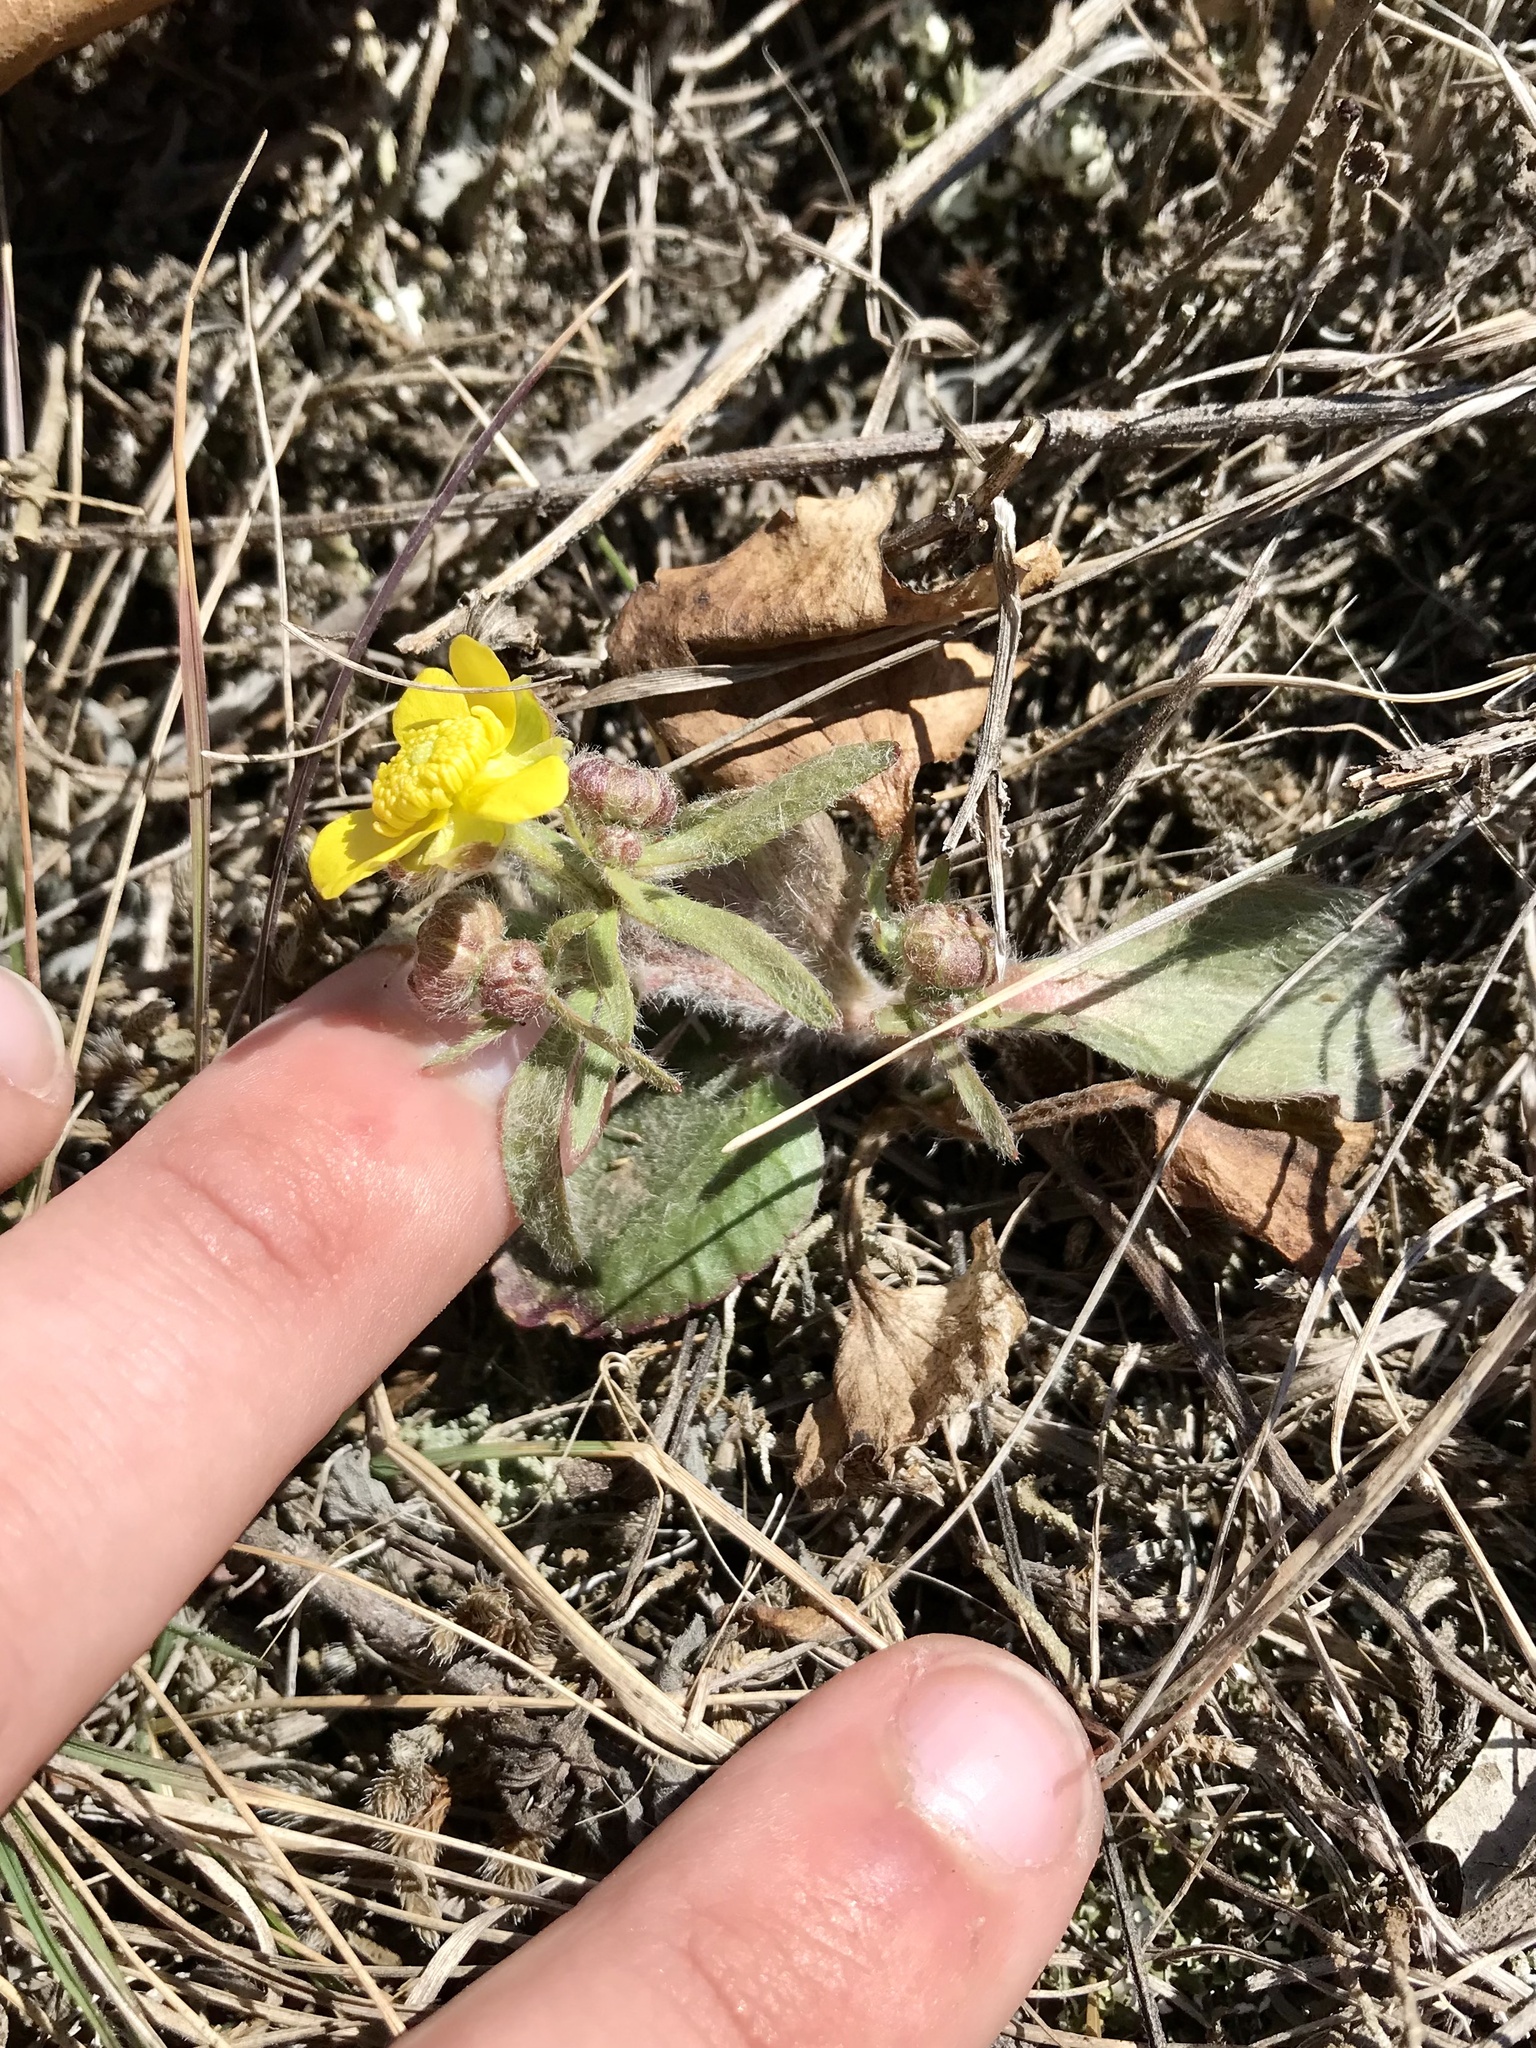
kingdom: Plantae
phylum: Tracheophyta
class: Magnoliopsida
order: Ranunculales
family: Ranunculaceae
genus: Ranunculus
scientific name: Ranunculus rhomboideus
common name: Prairie buttercup
